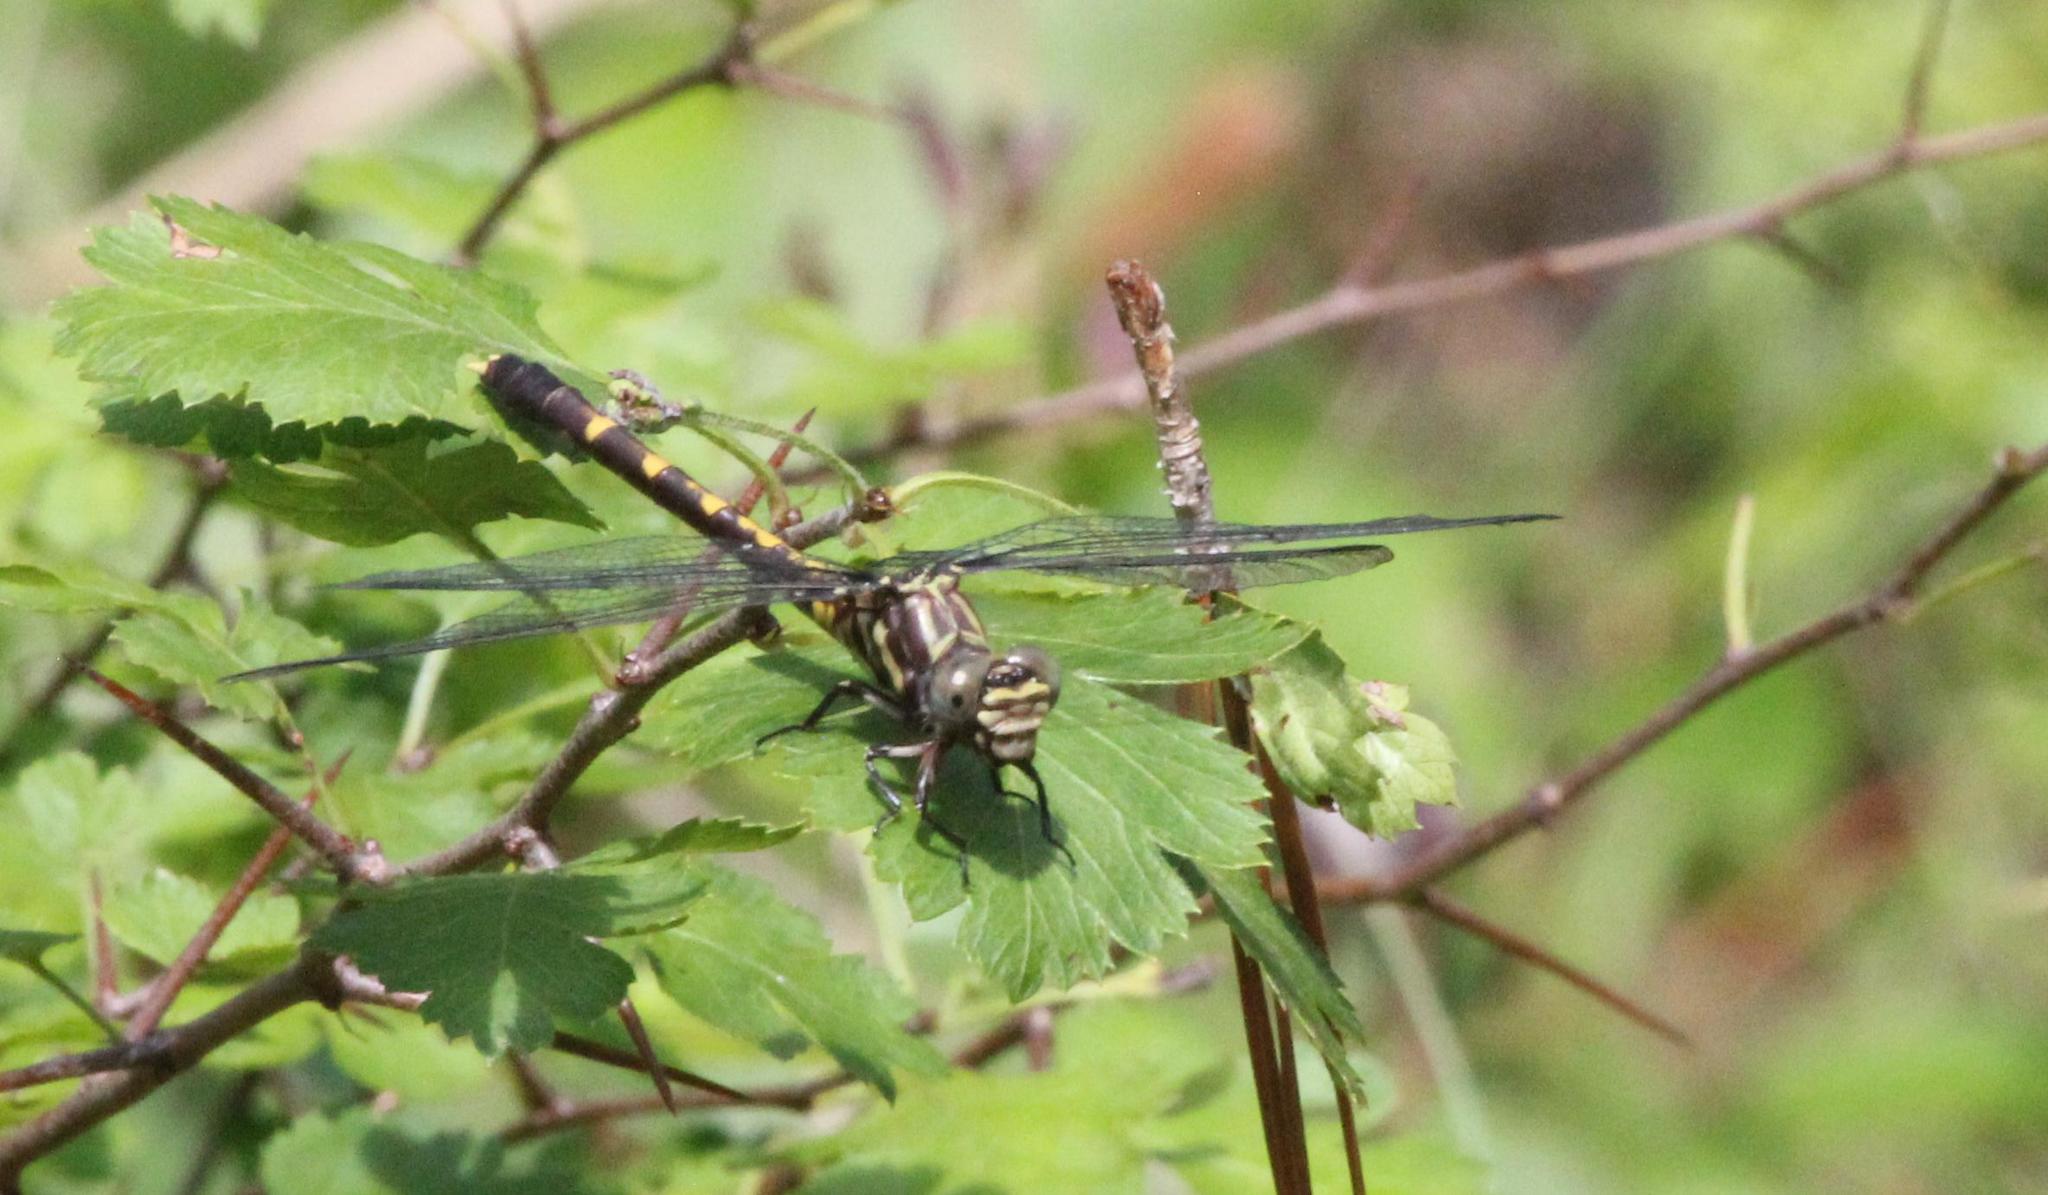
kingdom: Animalia
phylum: Arthropoda
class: Insecta
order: Odonata
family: Gomphidae
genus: Progomphus
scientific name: Progomphus obscurus
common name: Common sanddragon
